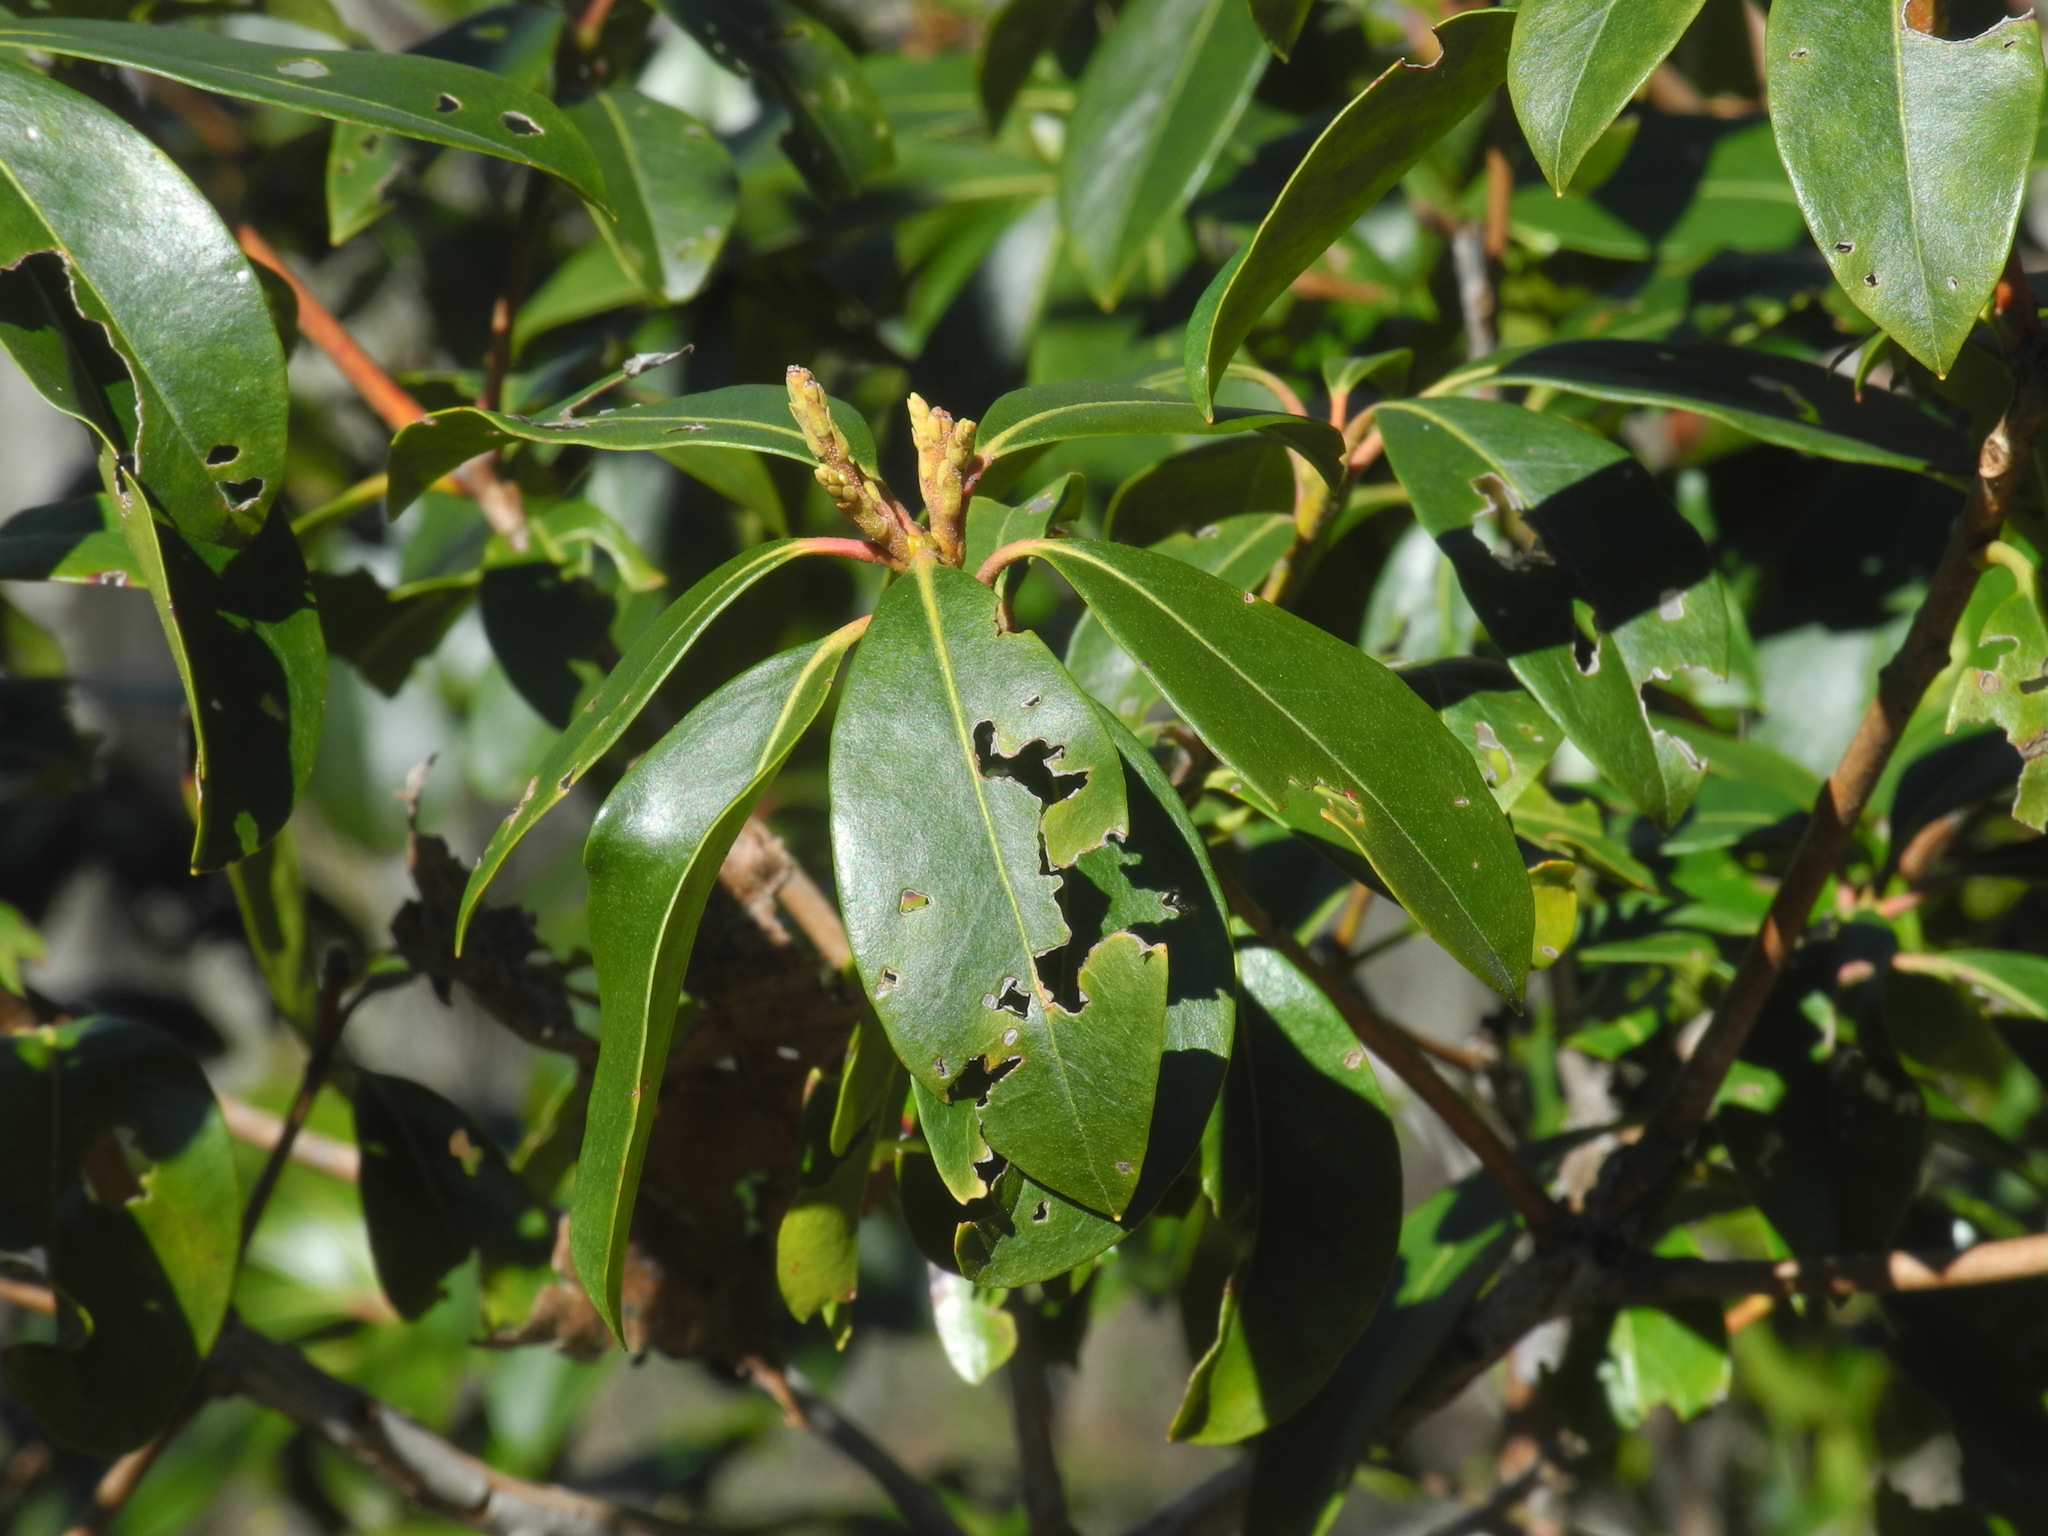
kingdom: Plantae
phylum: Tracheophyta
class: Magnoliopsida
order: Ericales
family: Ericaceae
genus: Kalmia
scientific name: Kalmia latifolia
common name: Mountain-laurel
